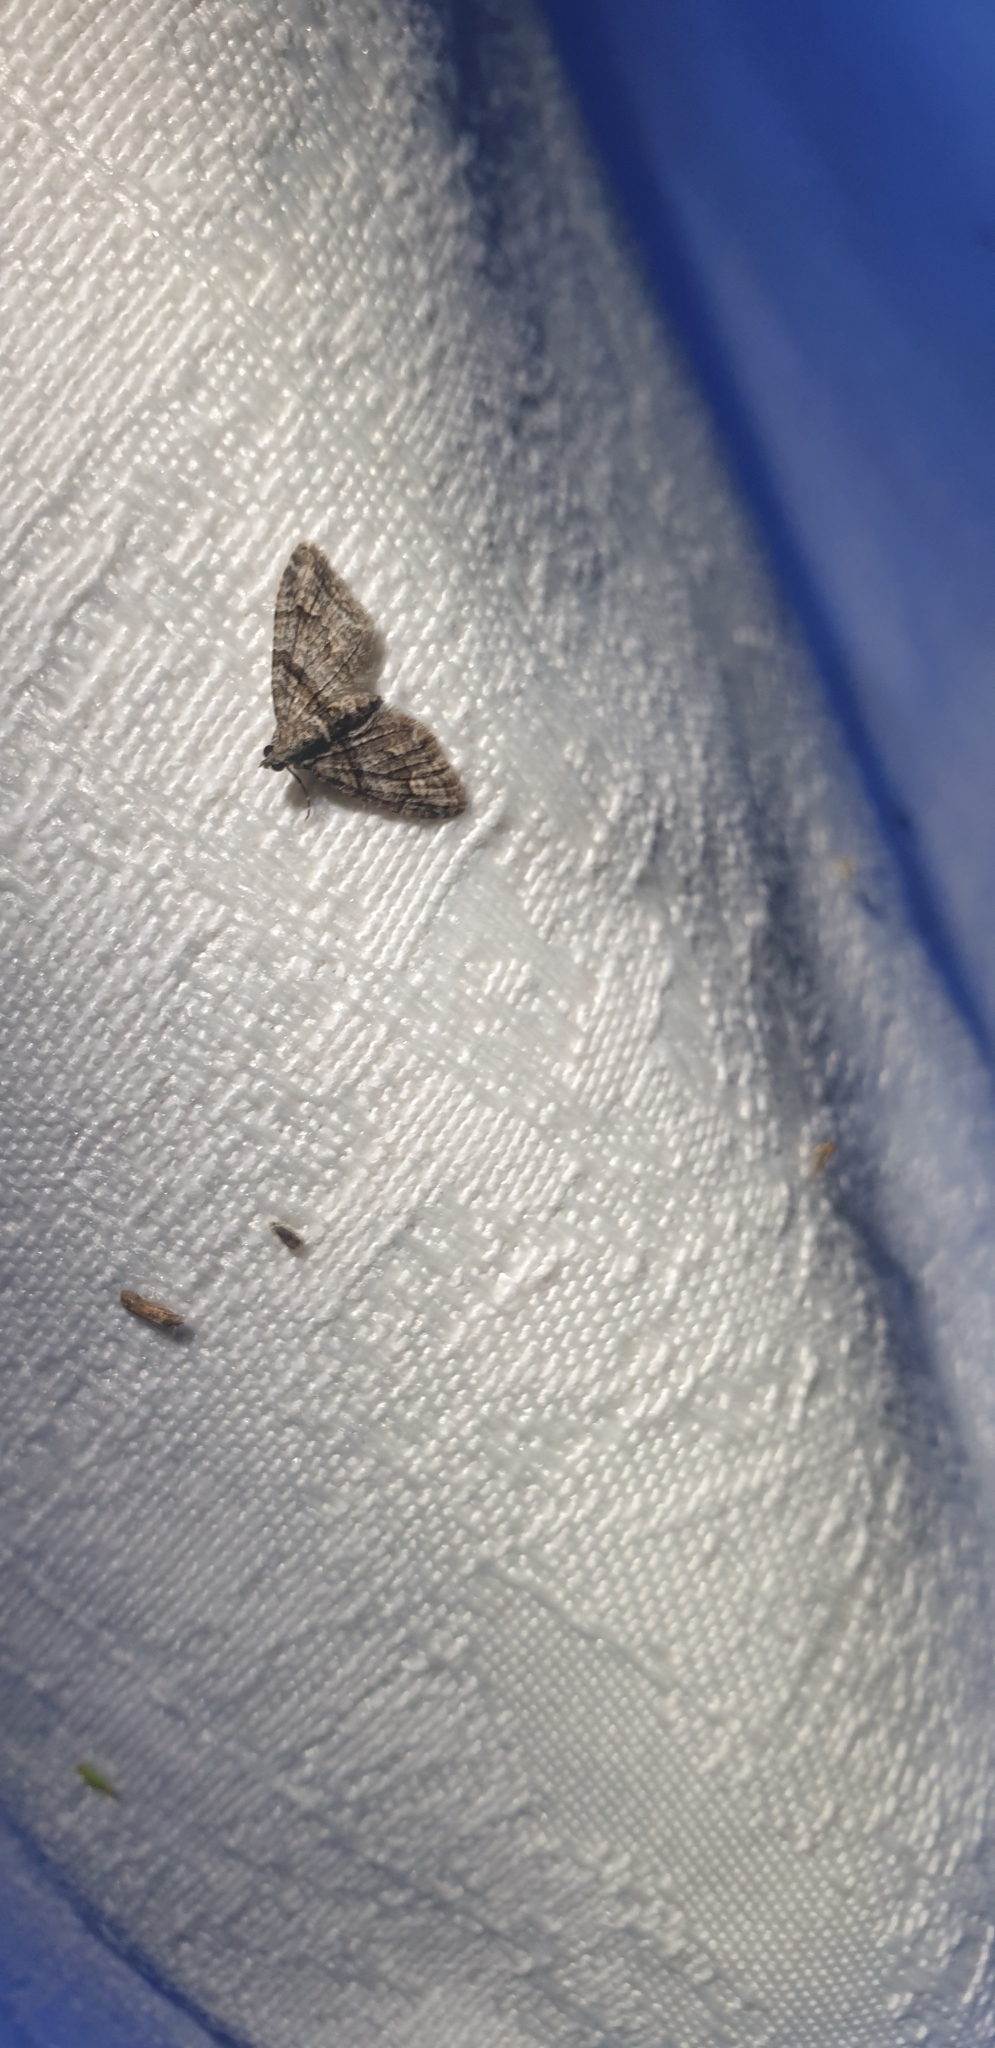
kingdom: Animalia
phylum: Arthropoda
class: Insecta
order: Lepidoptera
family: Geometridae
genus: Phrissogonus
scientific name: Phrissogonus laticostata
